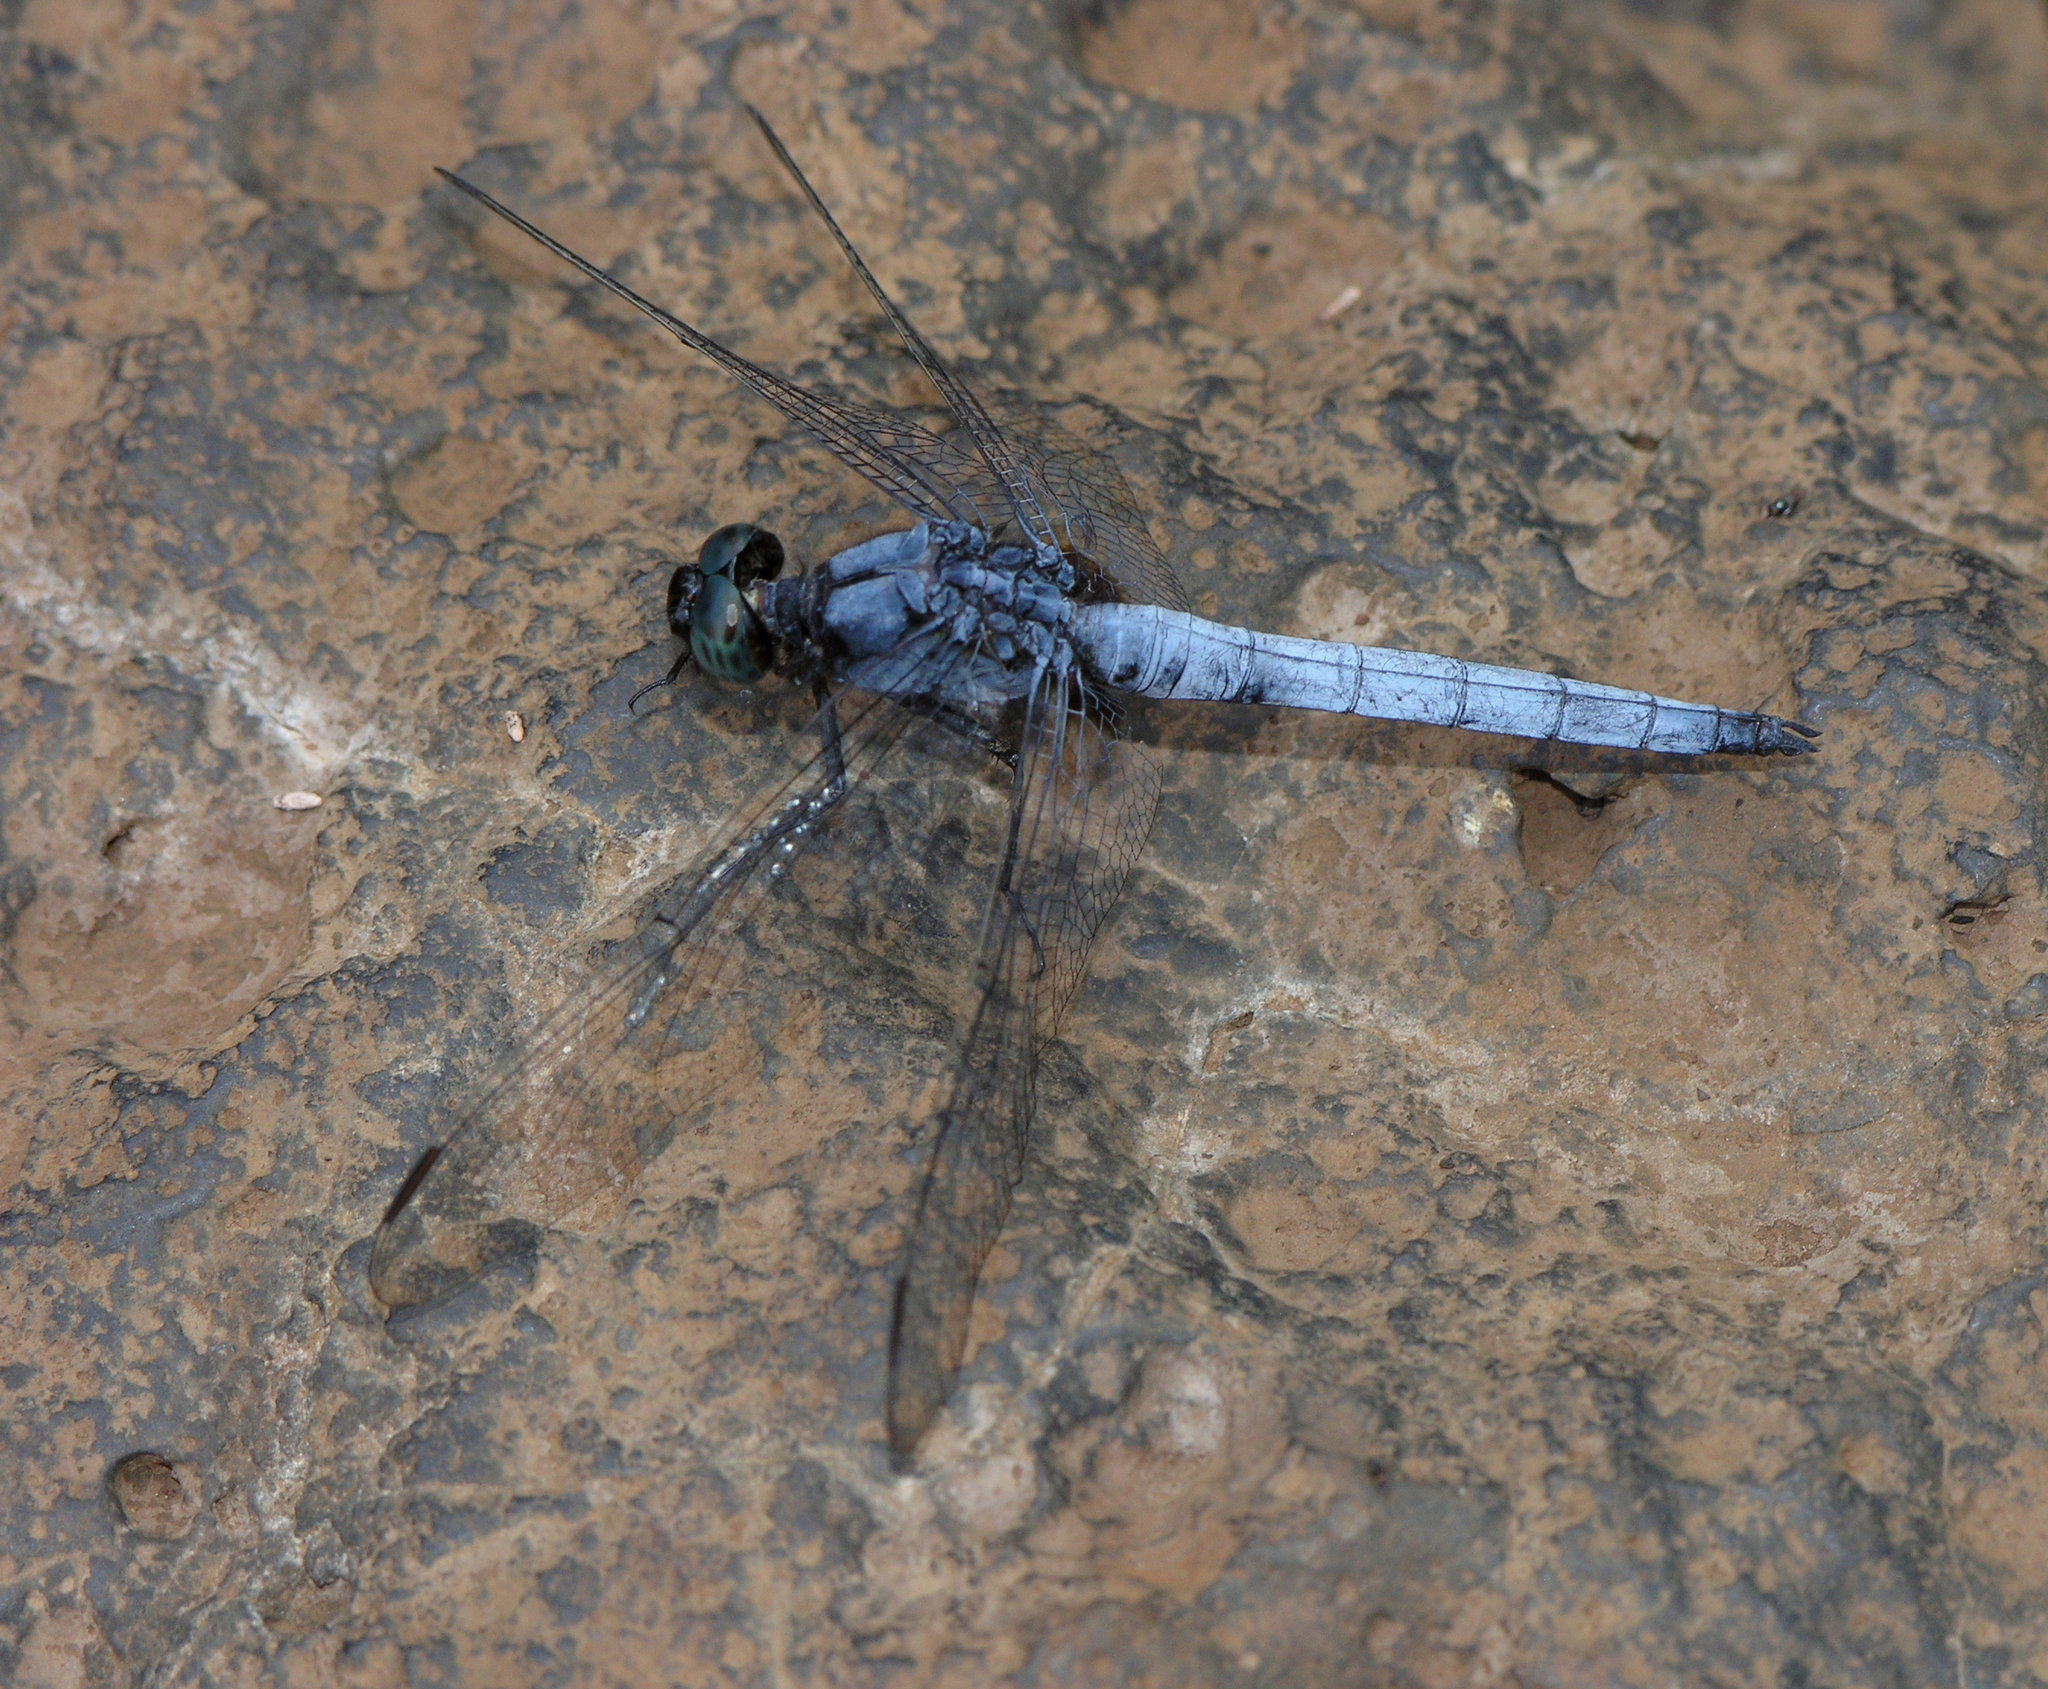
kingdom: Animalia
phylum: Arthropoda
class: Insecta
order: Odonata
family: Libellulidae
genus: Orthetrum
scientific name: Orthetrum glaucum
